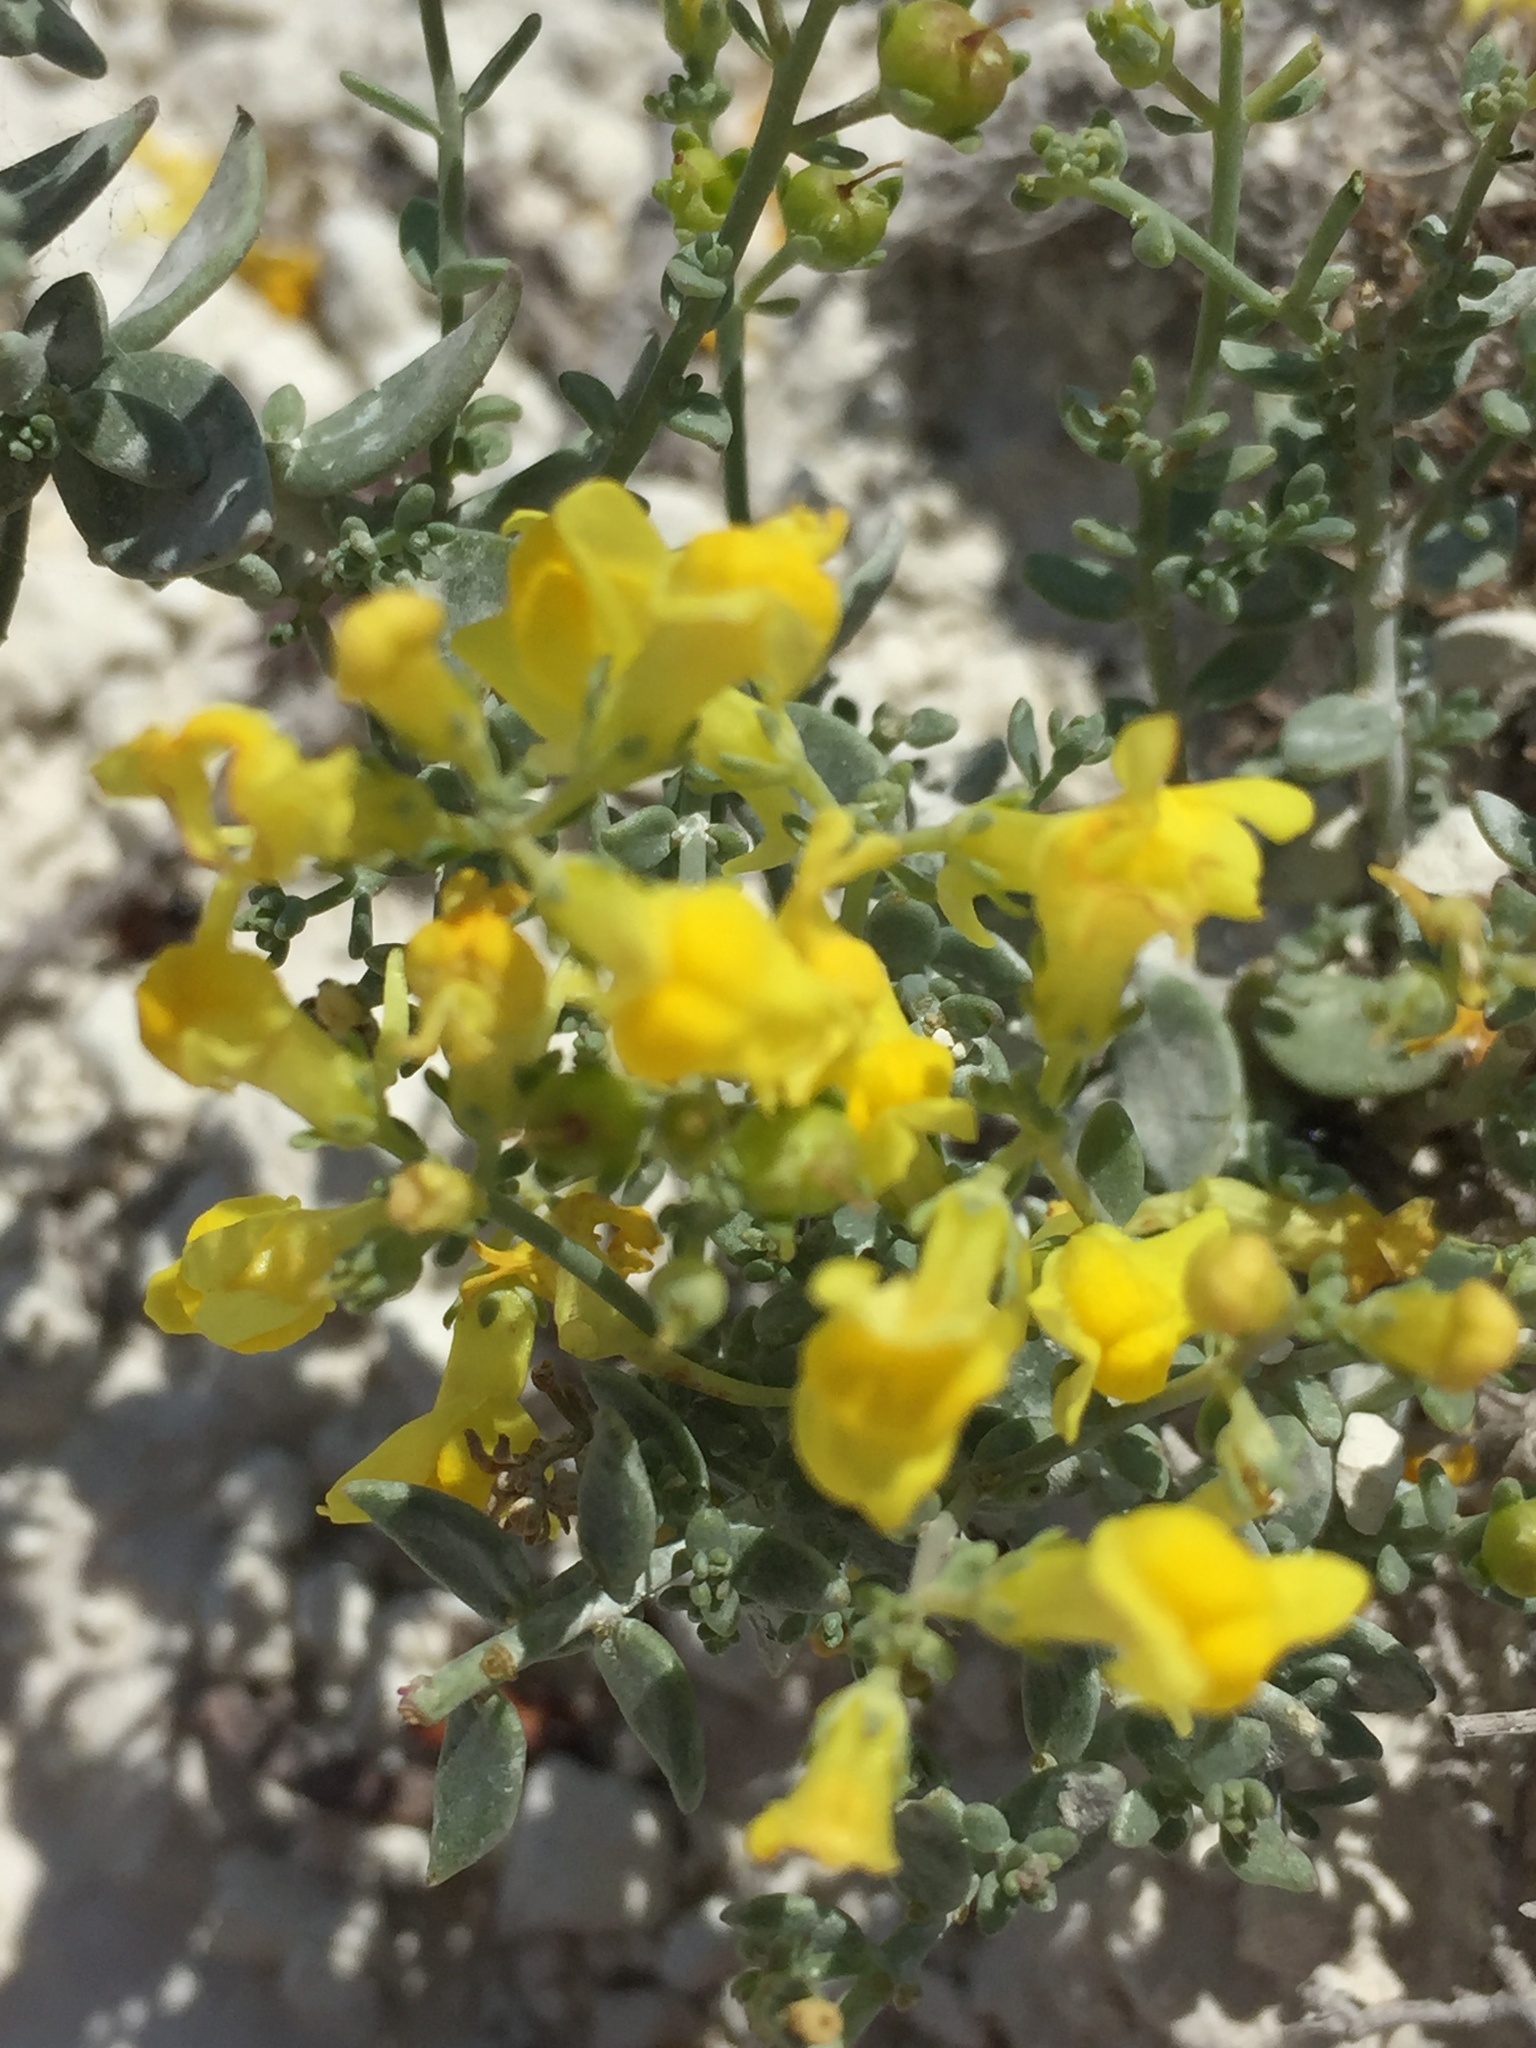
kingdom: Plantae
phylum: Tracheophyta
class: Magnoliopsida
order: Lamiales
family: Plantaginaceae
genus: Linaria
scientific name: Linaria cretacea
